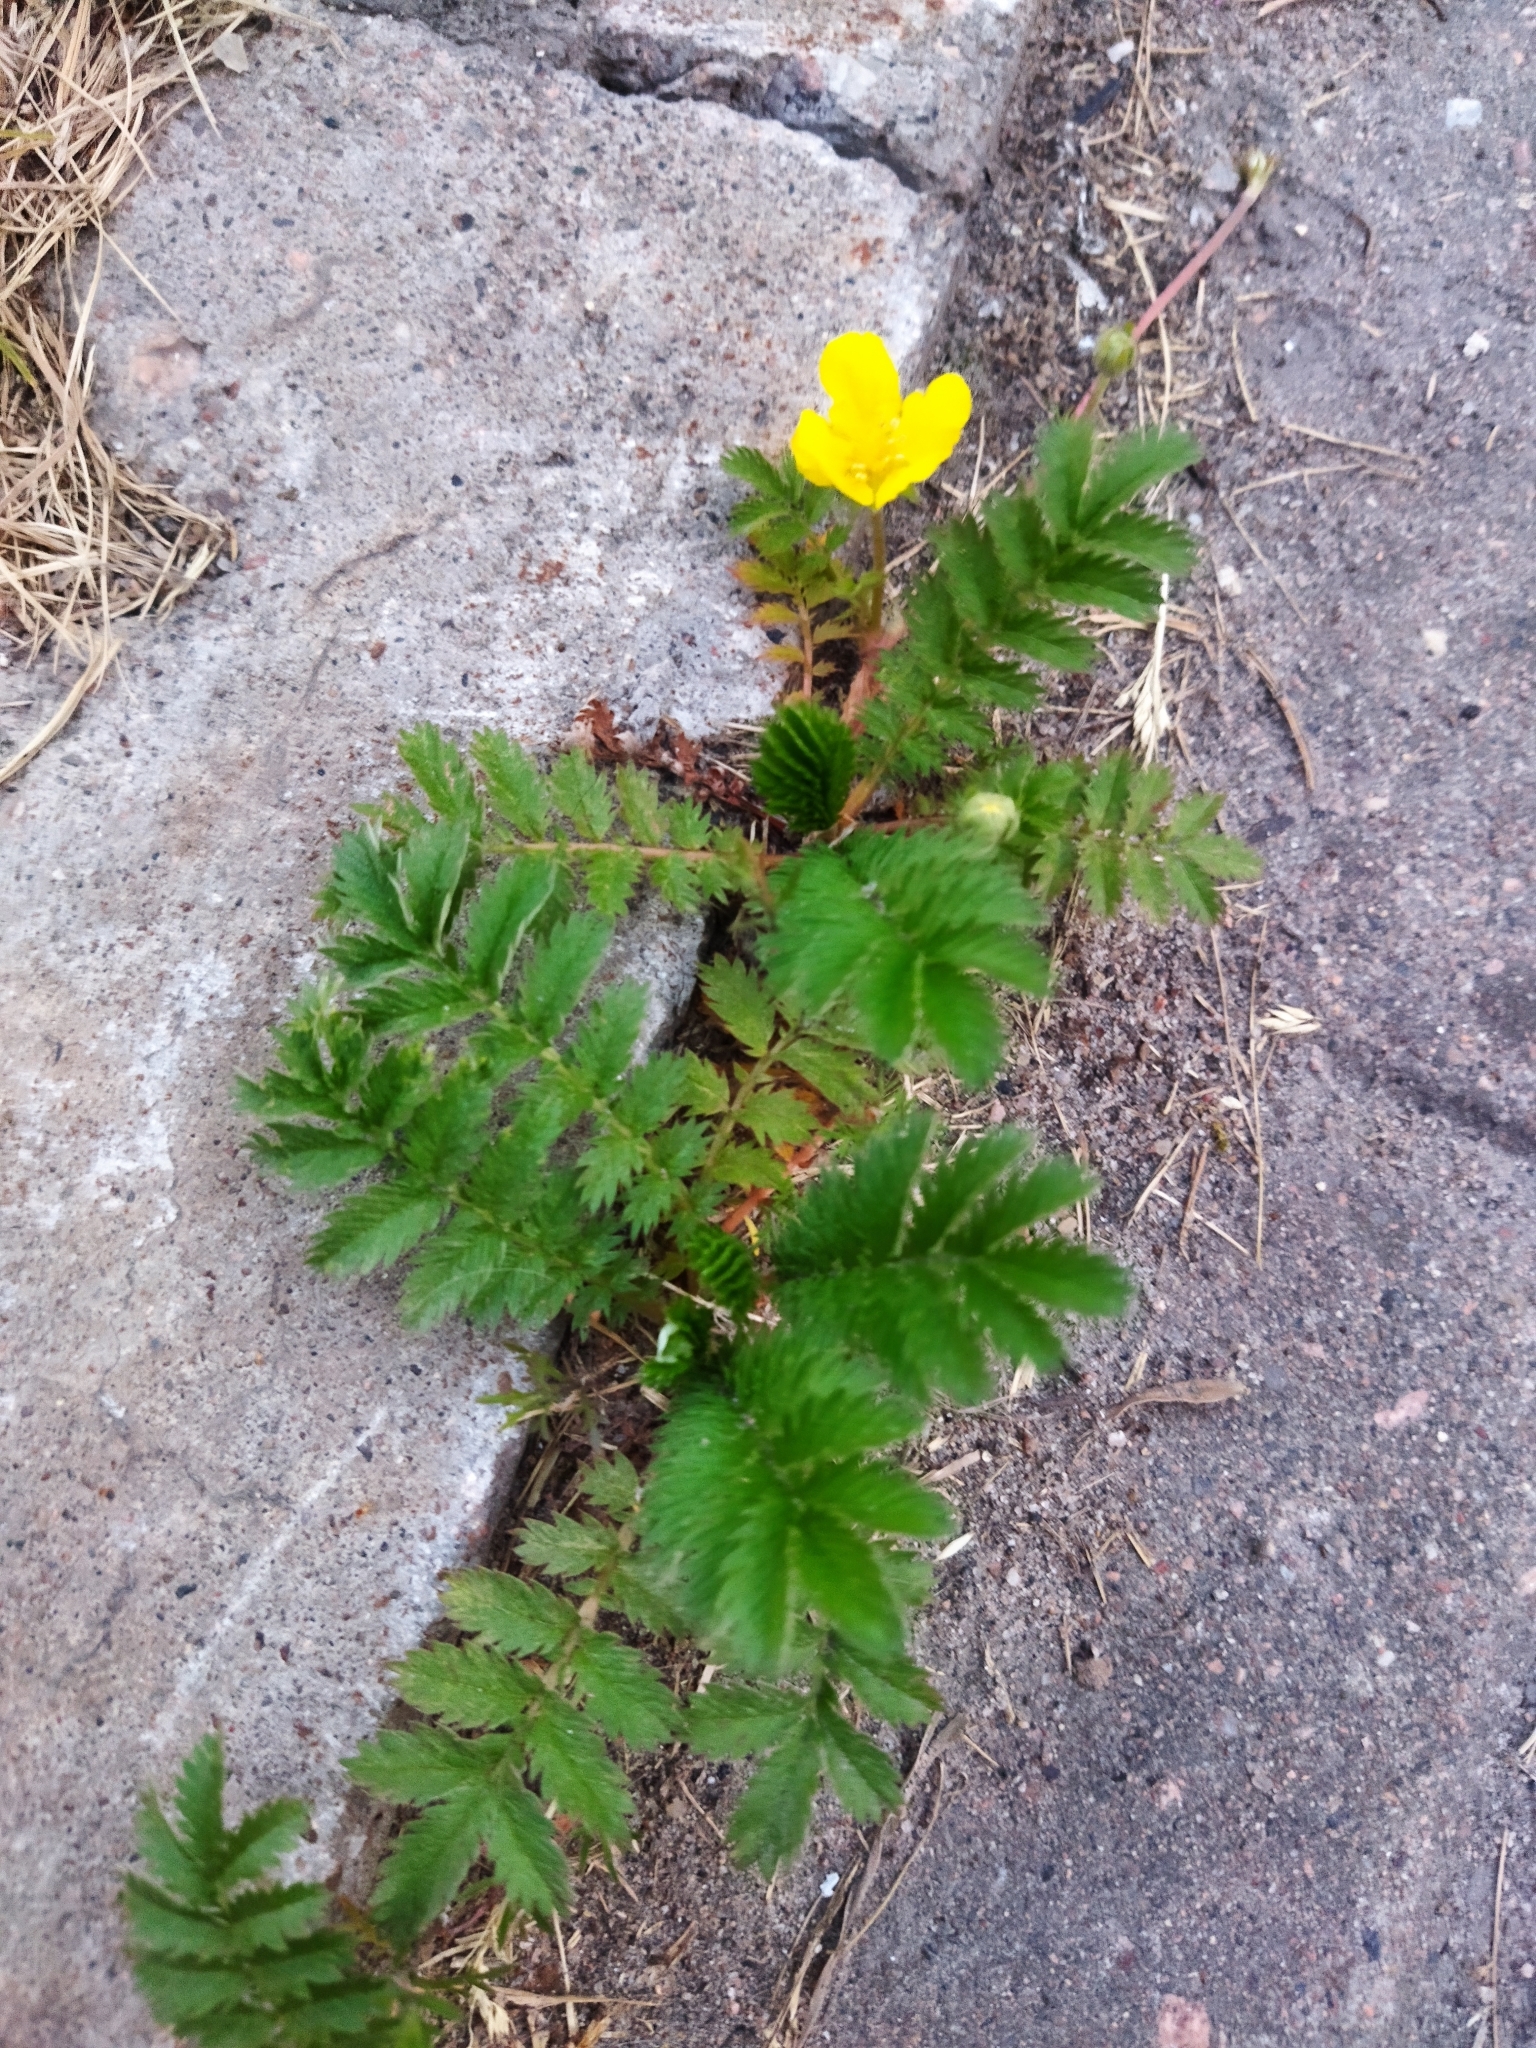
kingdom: Plantae
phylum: Tracheophyta
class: Magnoliopsida
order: Rosales
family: Rosaceae
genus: Argentina
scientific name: Argentina anserina
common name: Common silverweed
